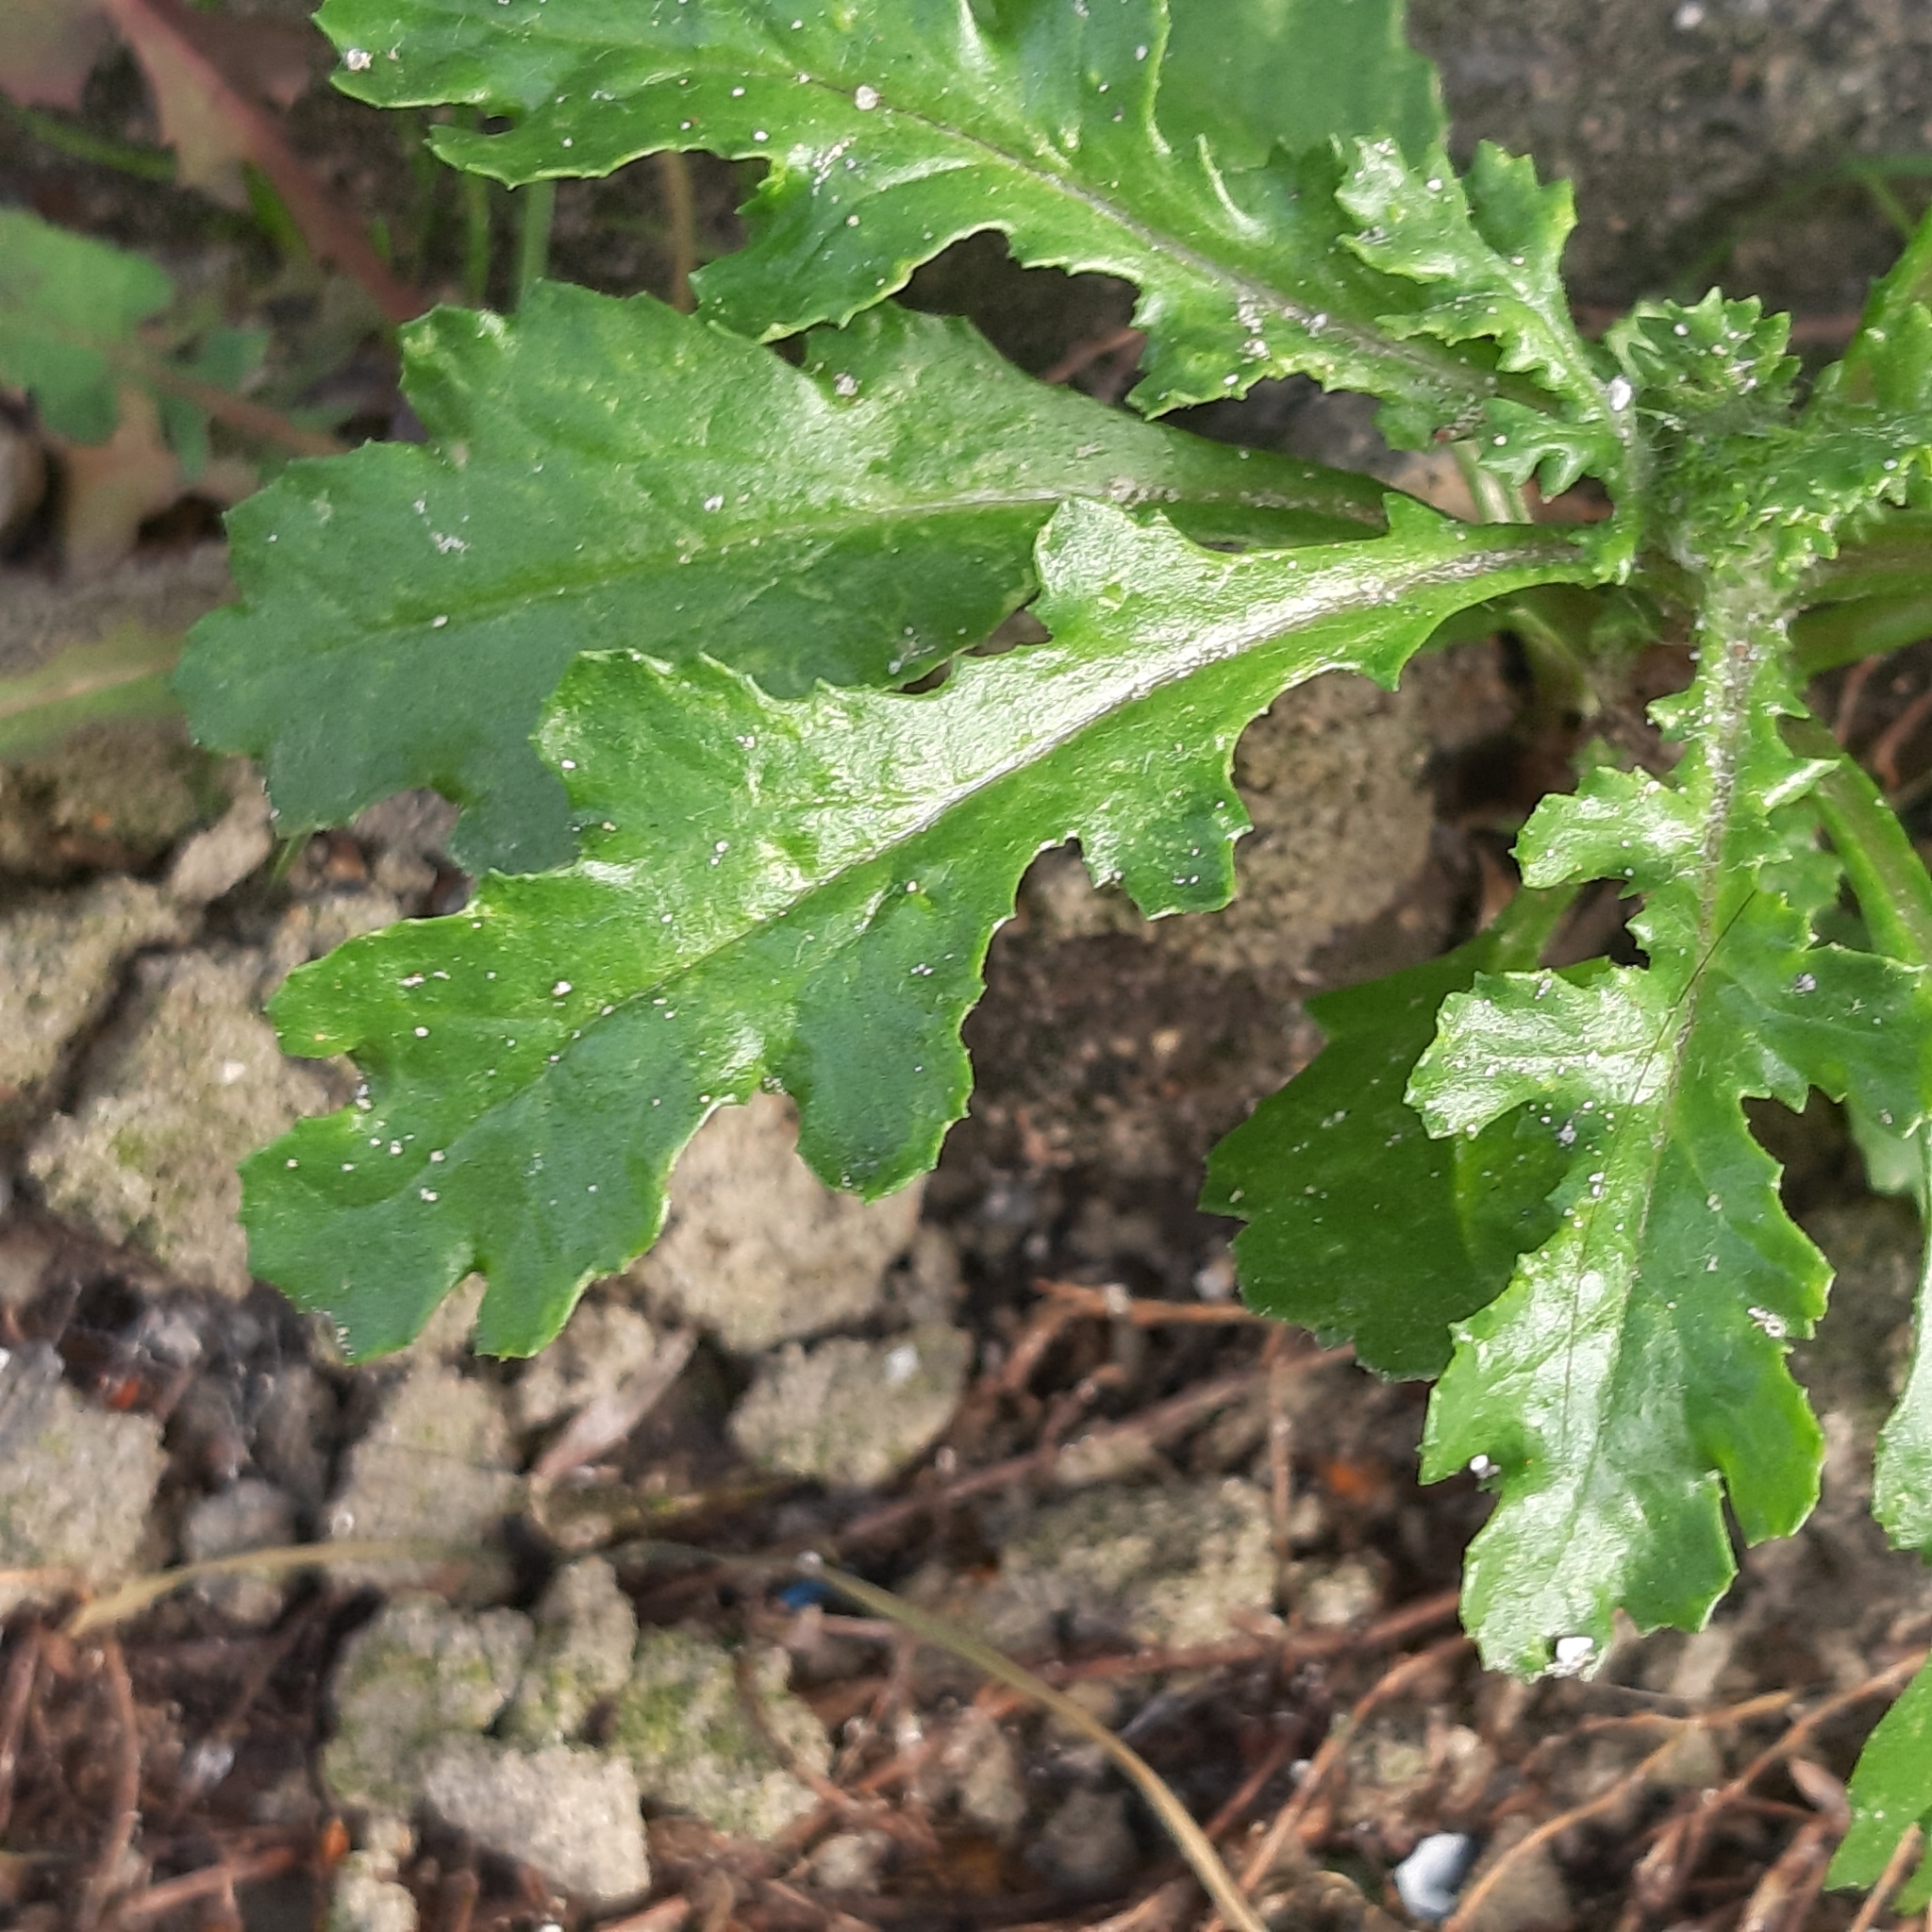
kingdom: Plantae
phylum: Tracheophyta
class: Magnoliopsida
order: Asterales
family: Asteraceae
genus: Senecio
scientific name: Senecio vulgaris
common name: Old-man-in-the-spring
